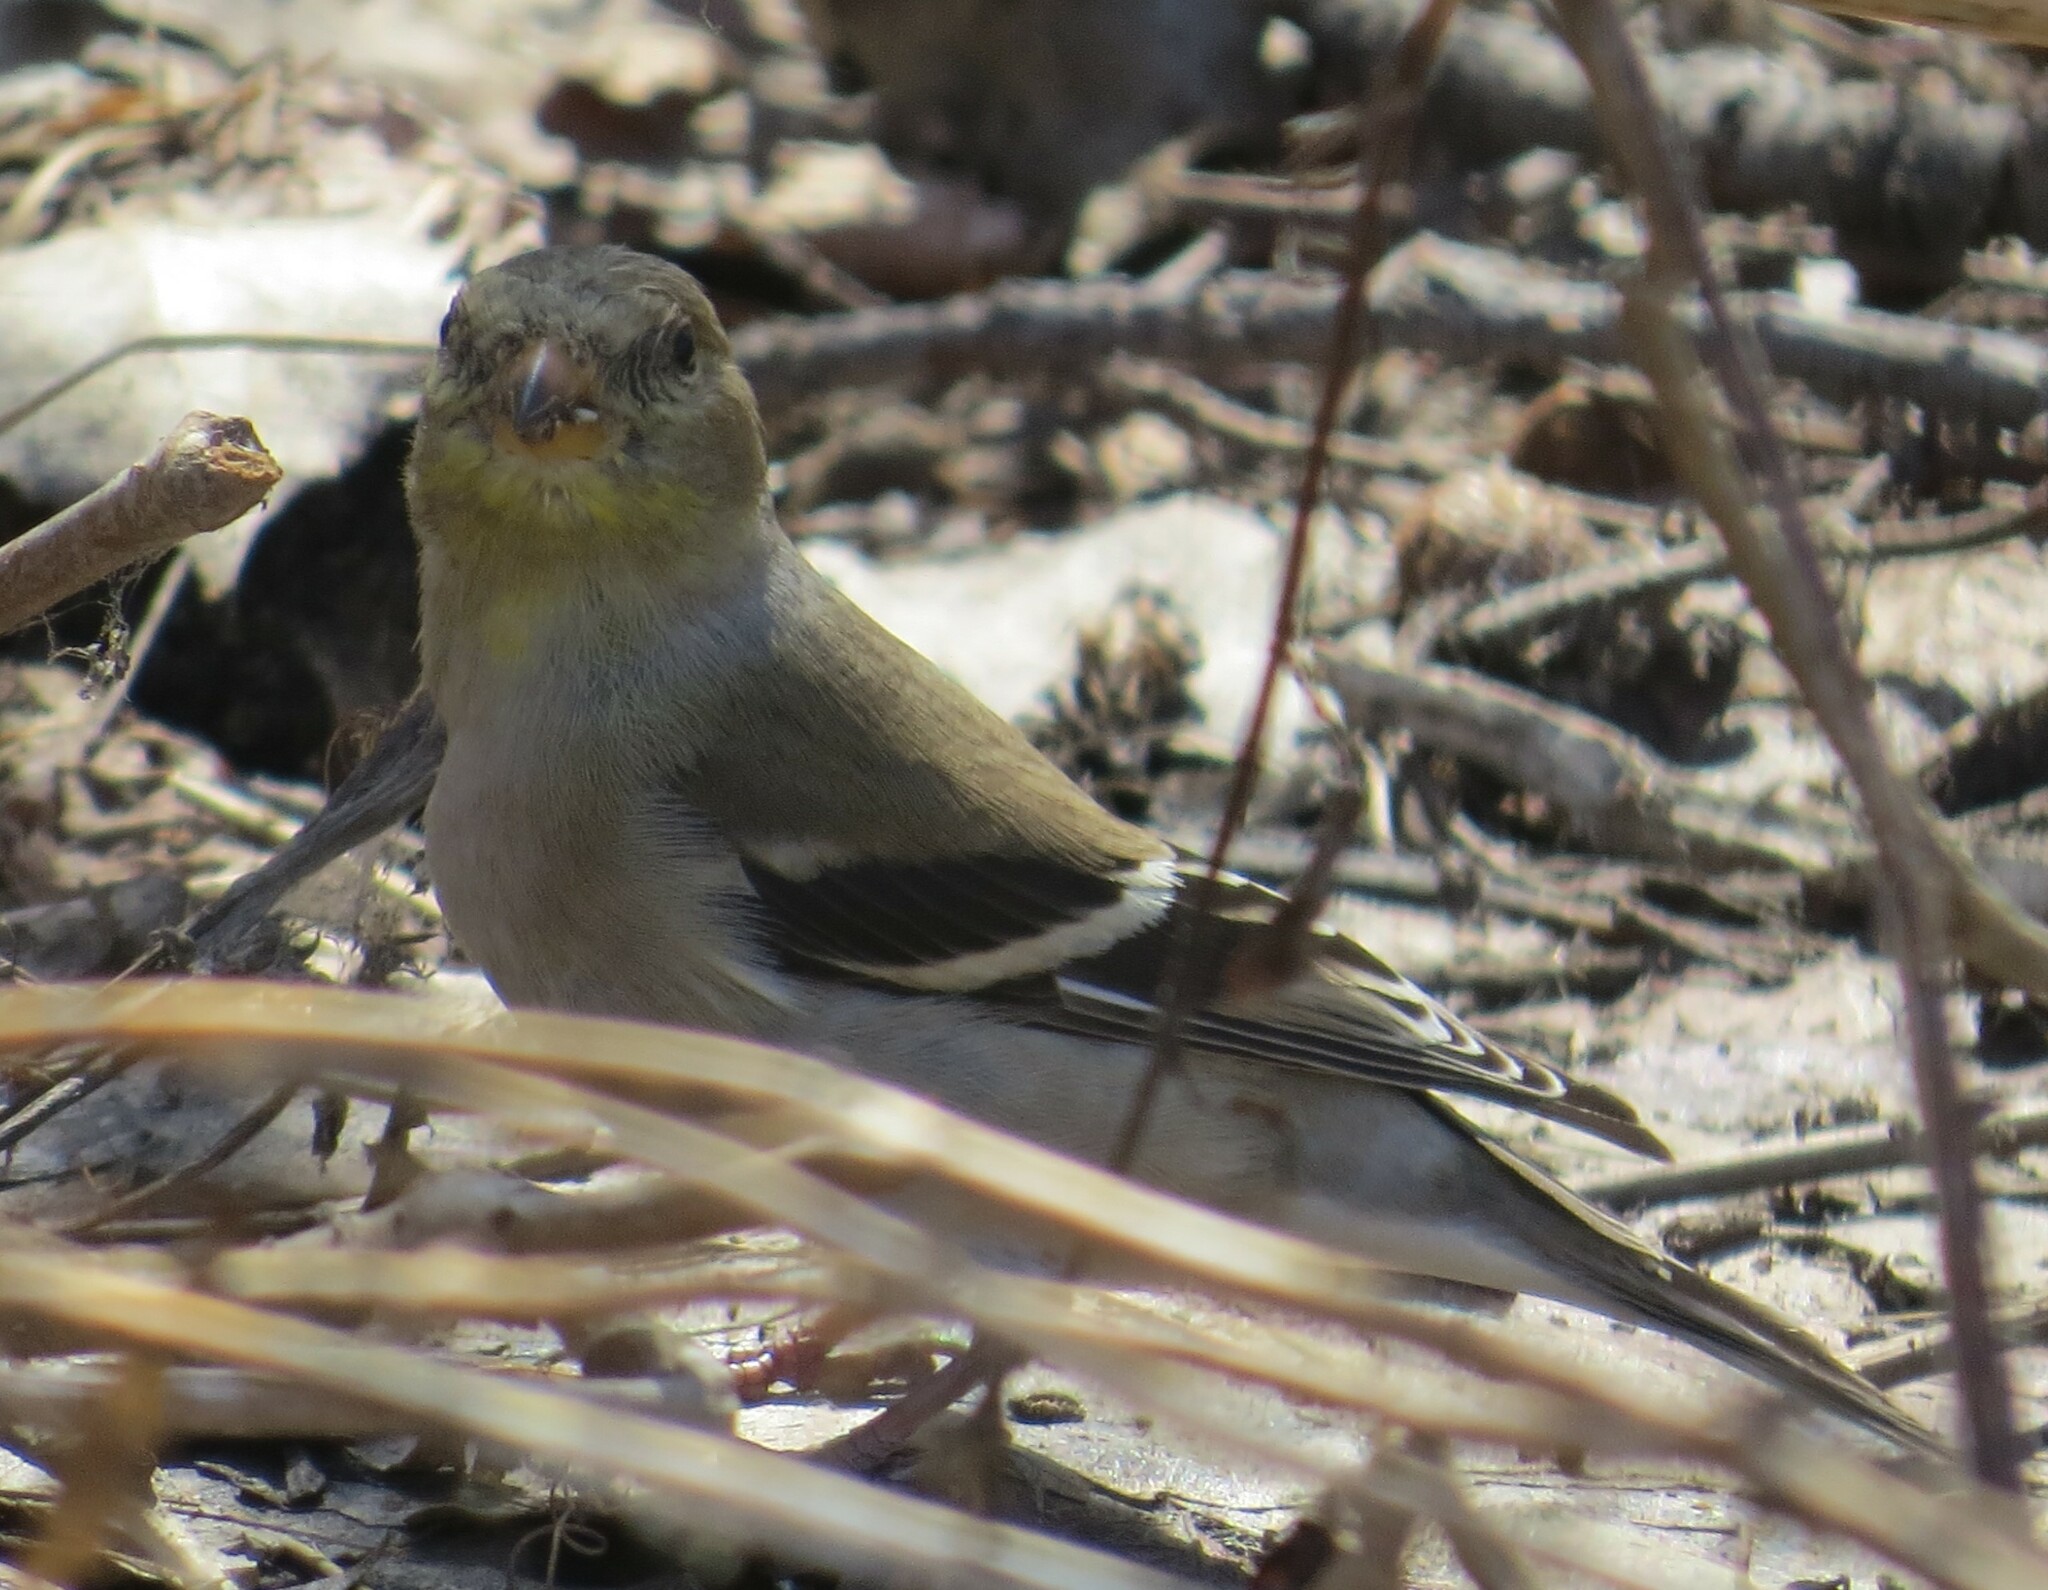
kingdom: Animalia
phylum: Chordata
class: Aves
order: Passeriformes
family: Fringillidae
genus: Spinus
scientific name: Spinus tristis
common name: American goldfinch
